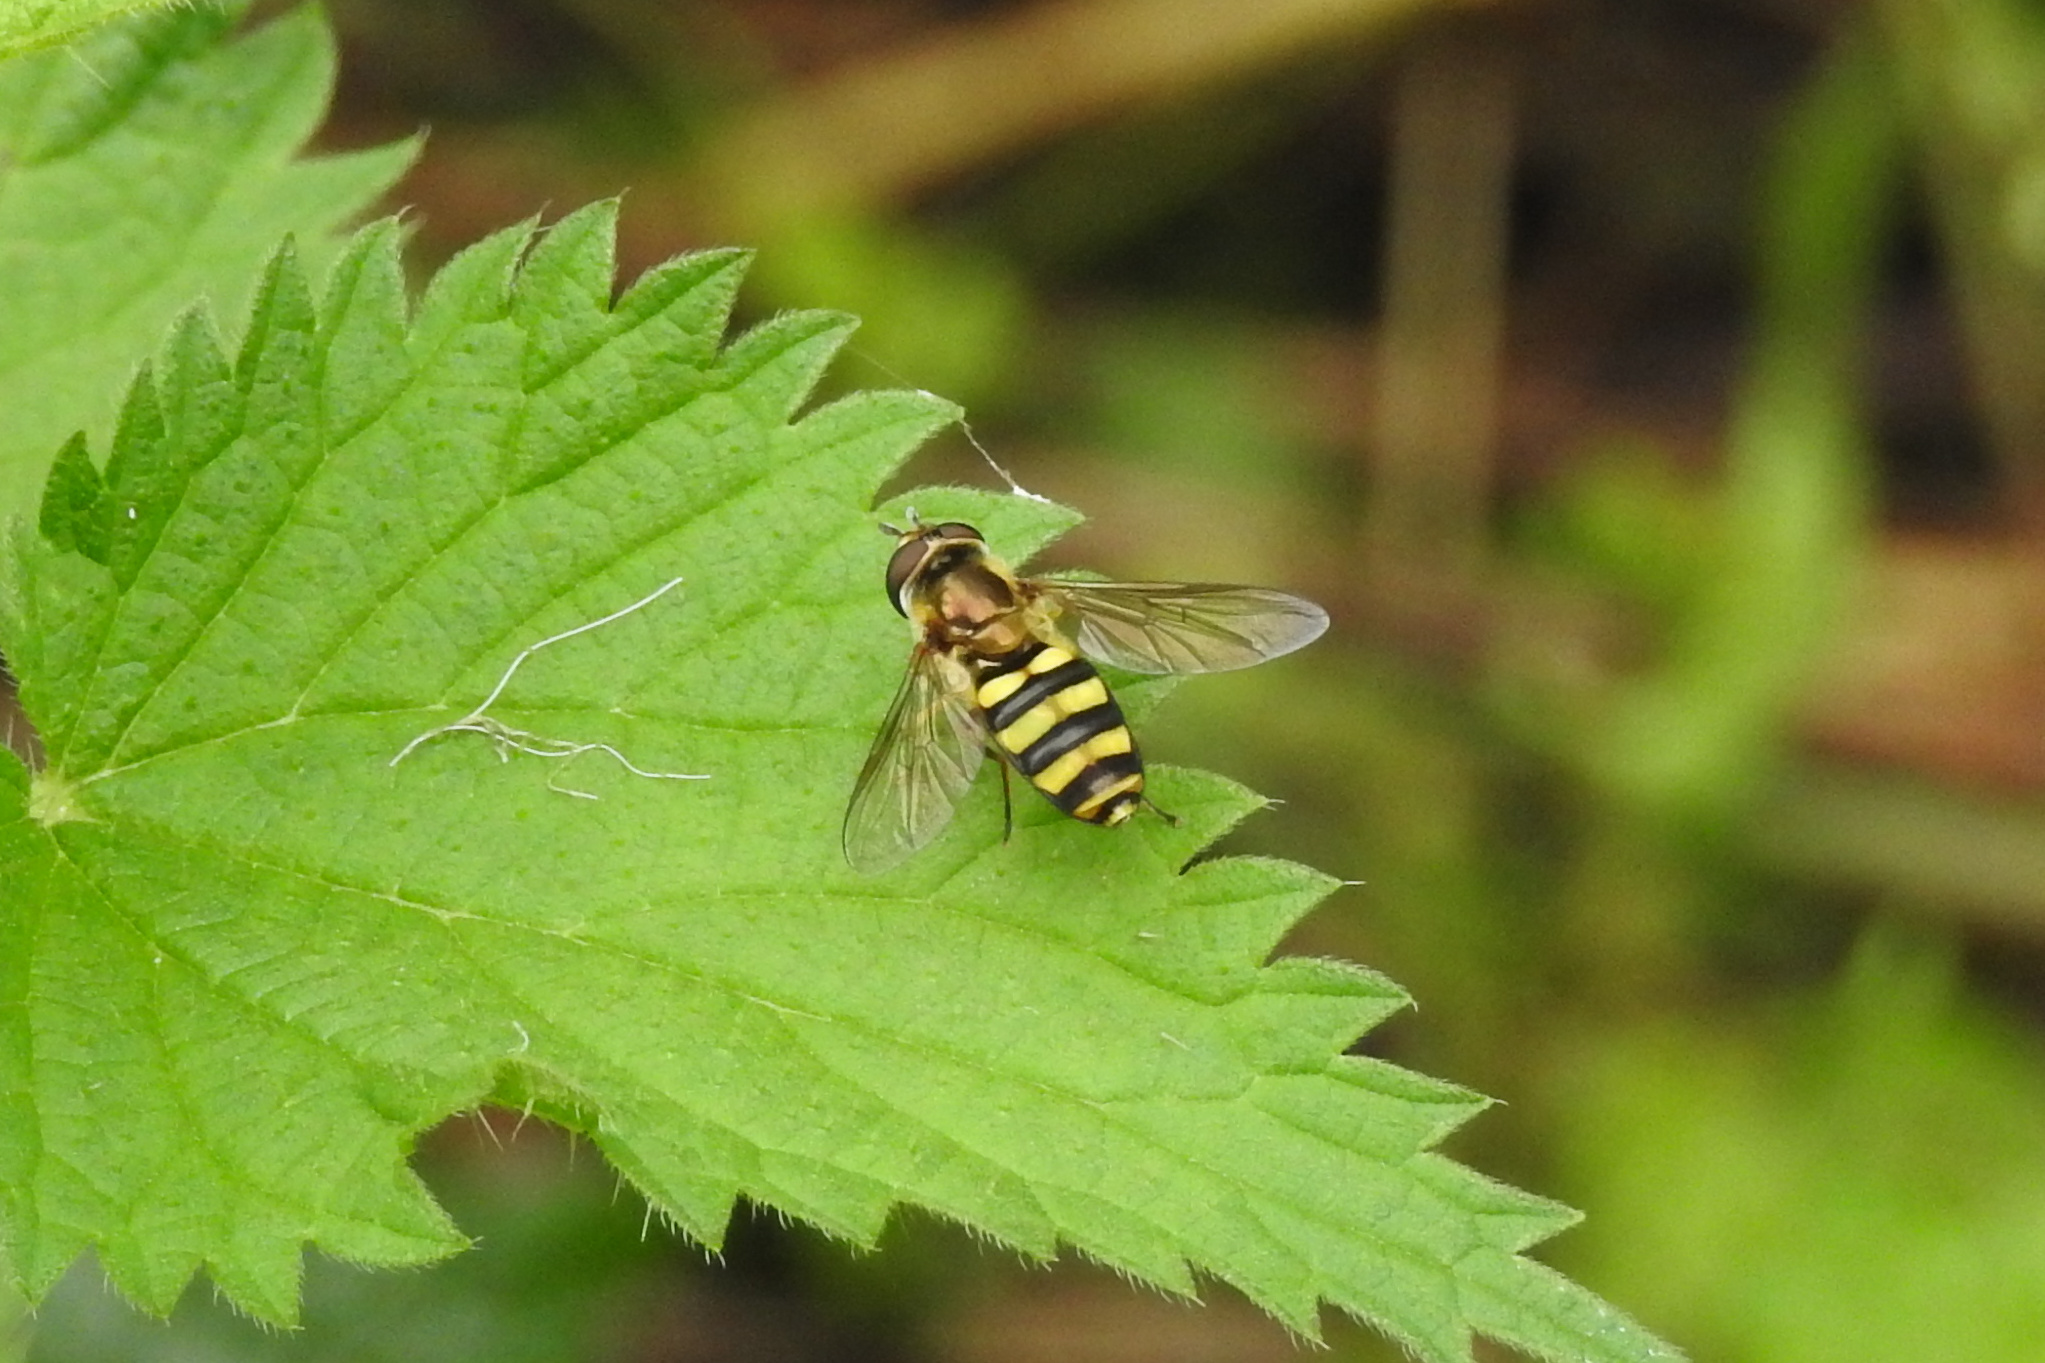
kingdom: Animalia
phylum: Arthropoda
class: Insecta
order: Diptera
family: Syrphidae
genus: Eupeodes
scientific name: Eupeodes
